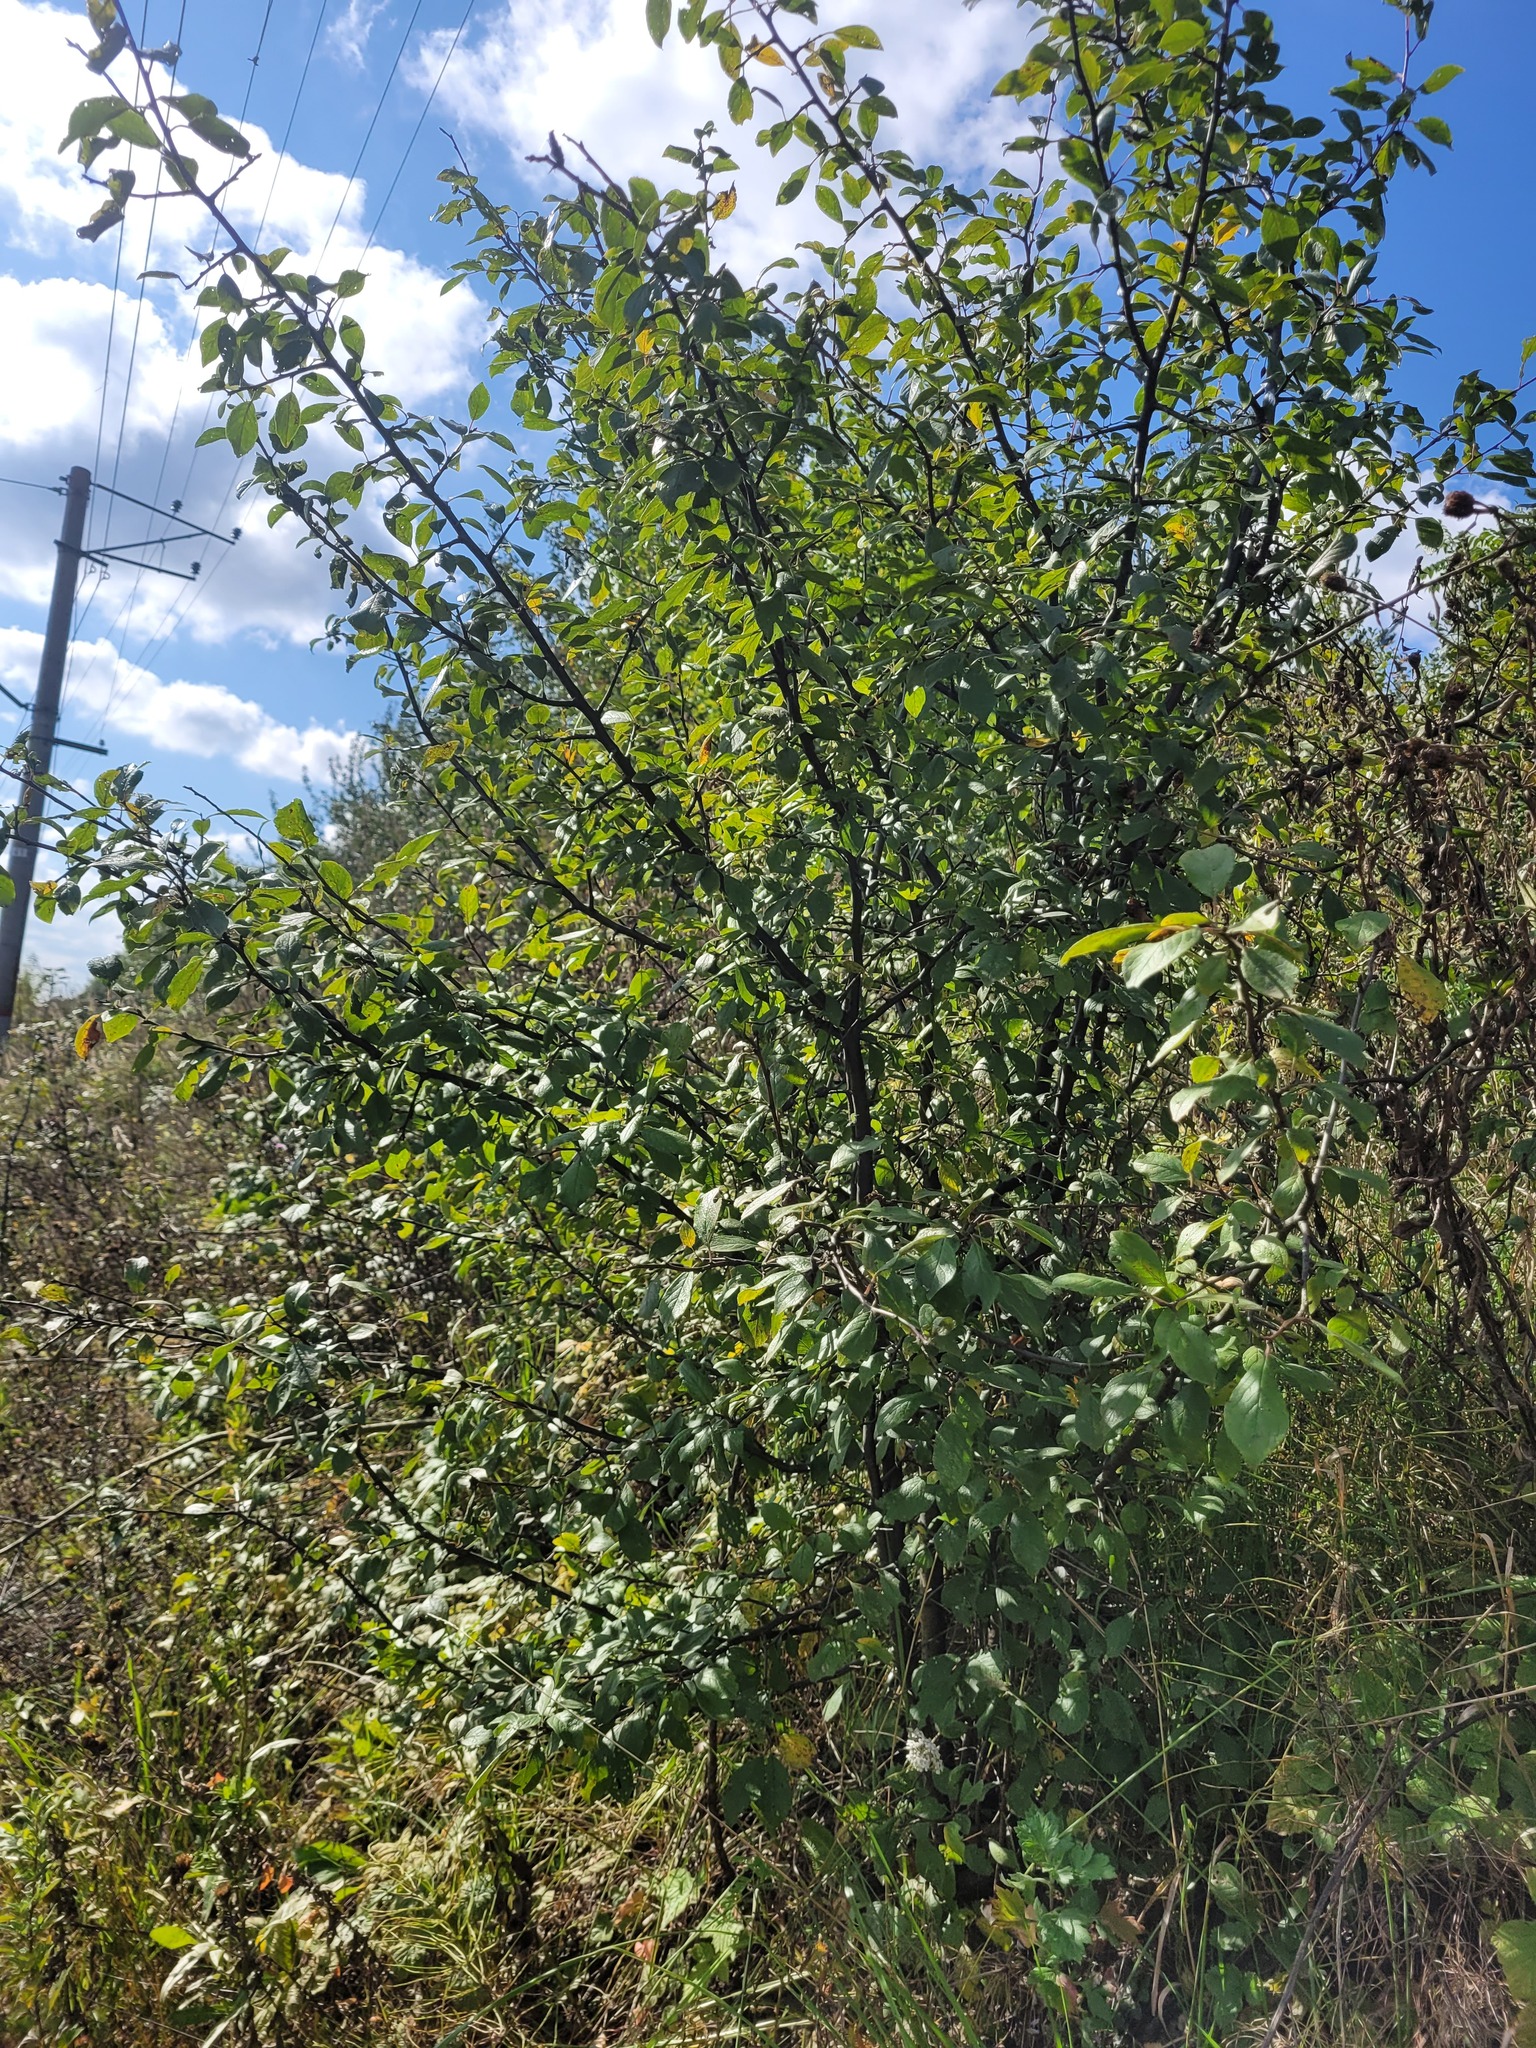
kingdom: Plantae
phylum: Tracheophyta
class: Magnoliopsida
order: Rosales
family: Rosaceae
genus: Prunus
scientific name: Prunus domestica
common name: Wild plum
